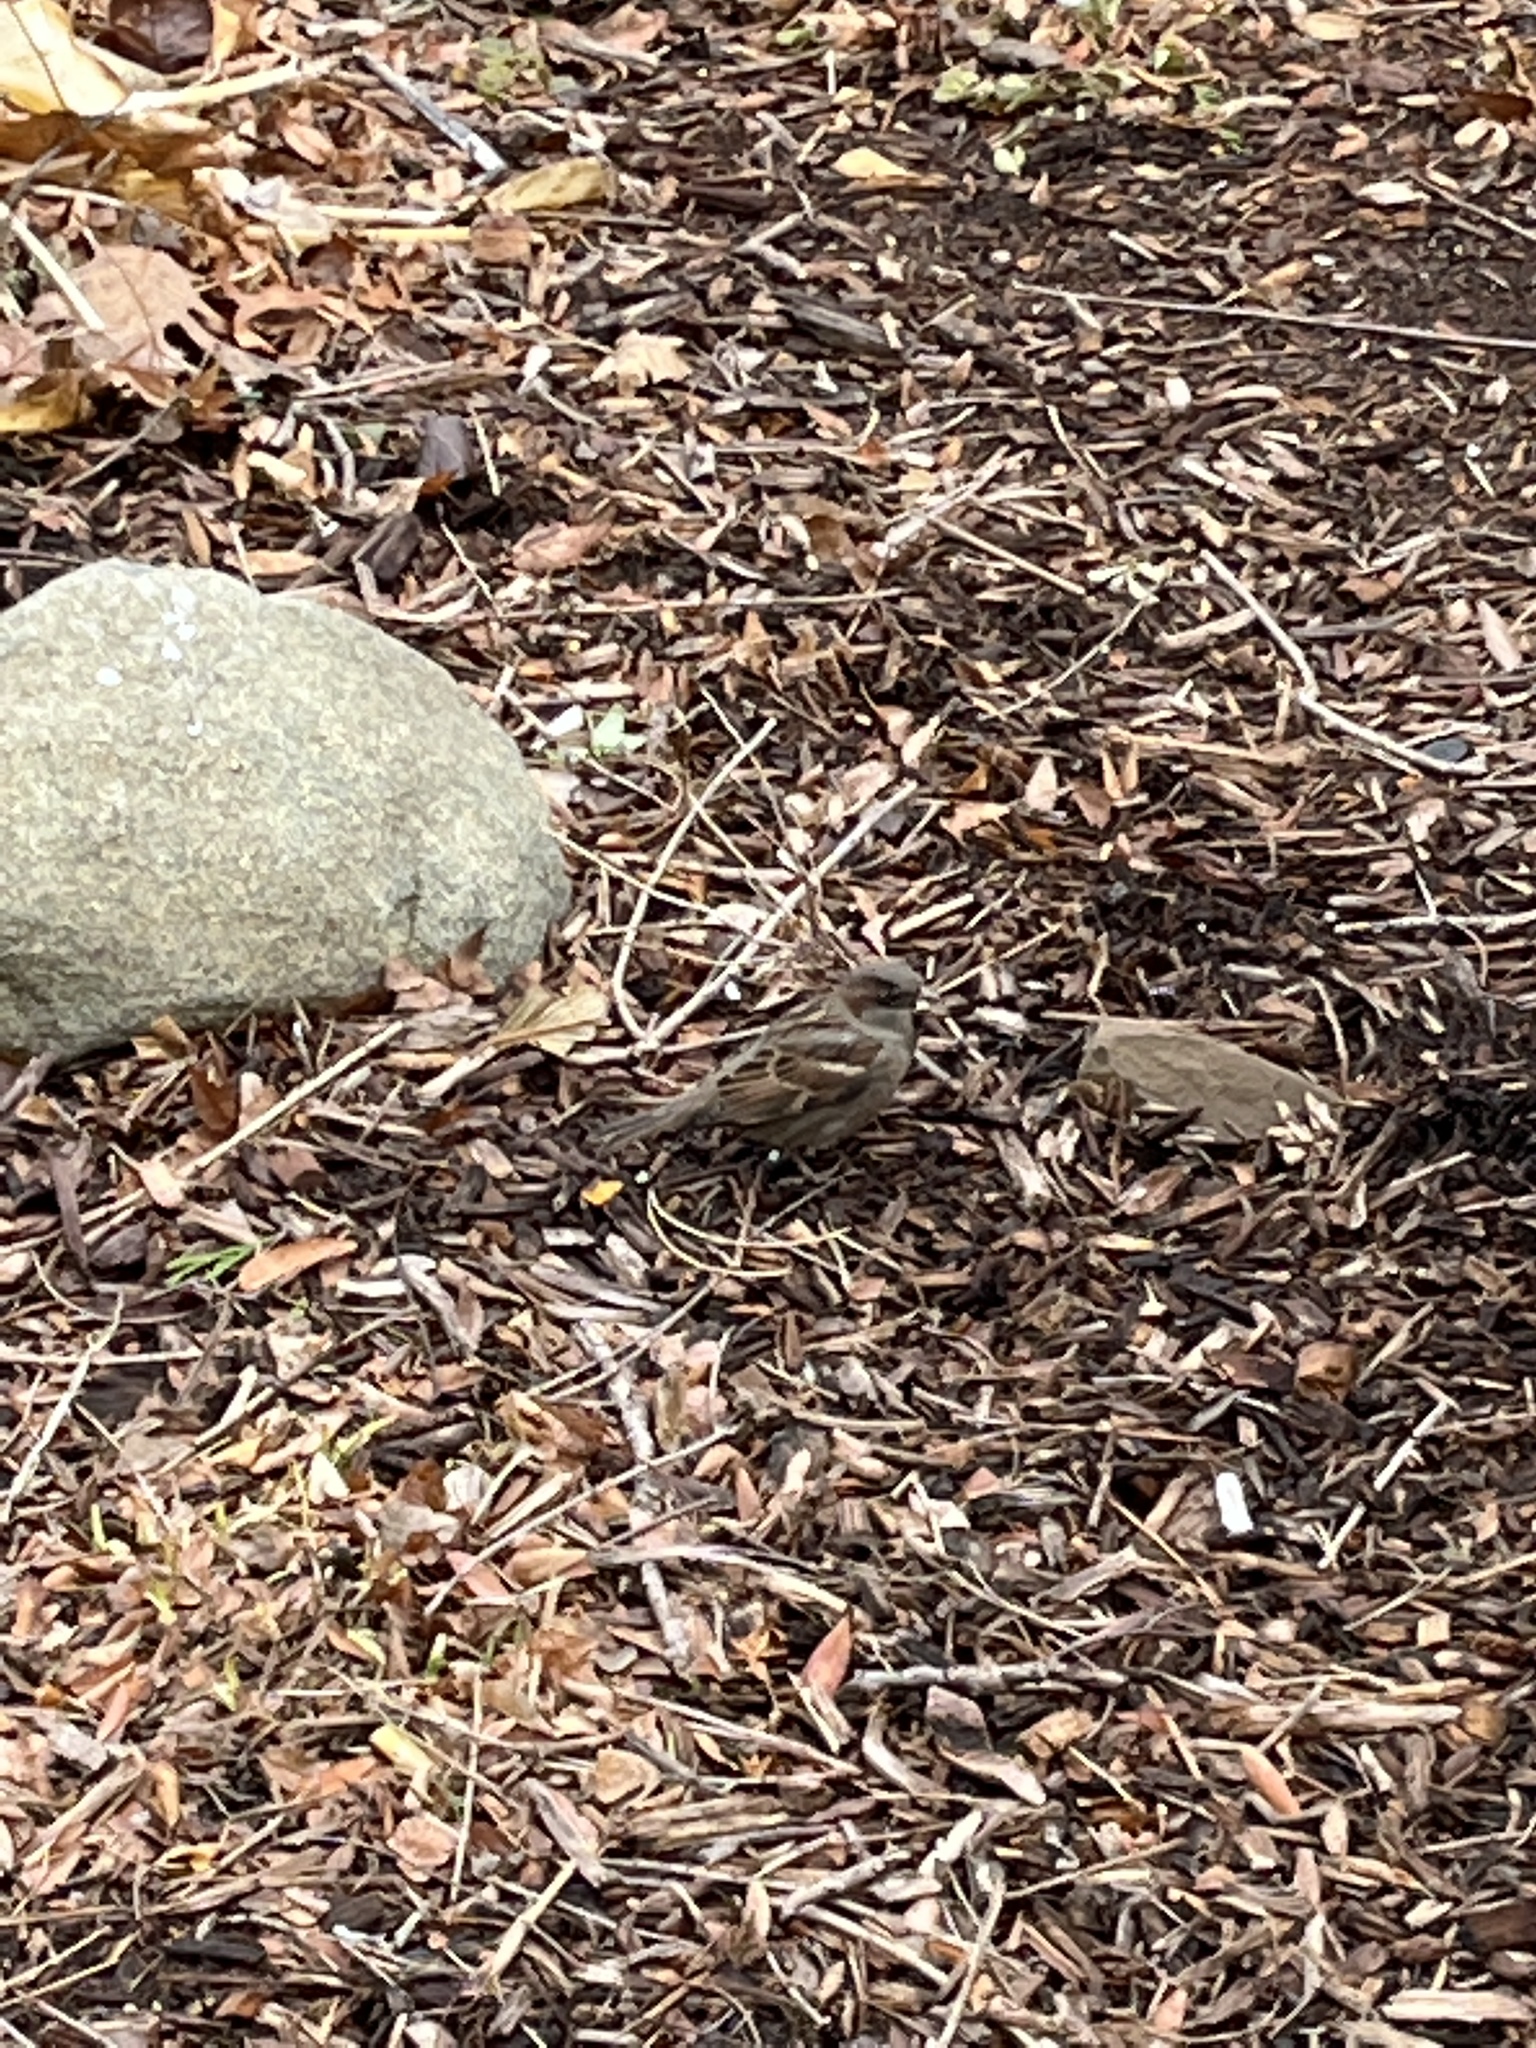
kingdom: Animalia
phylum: Chordata
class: Aves
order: Passeriformes
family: Passeridae
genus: Passer
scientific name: Passer domesticus
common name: House sparrow
